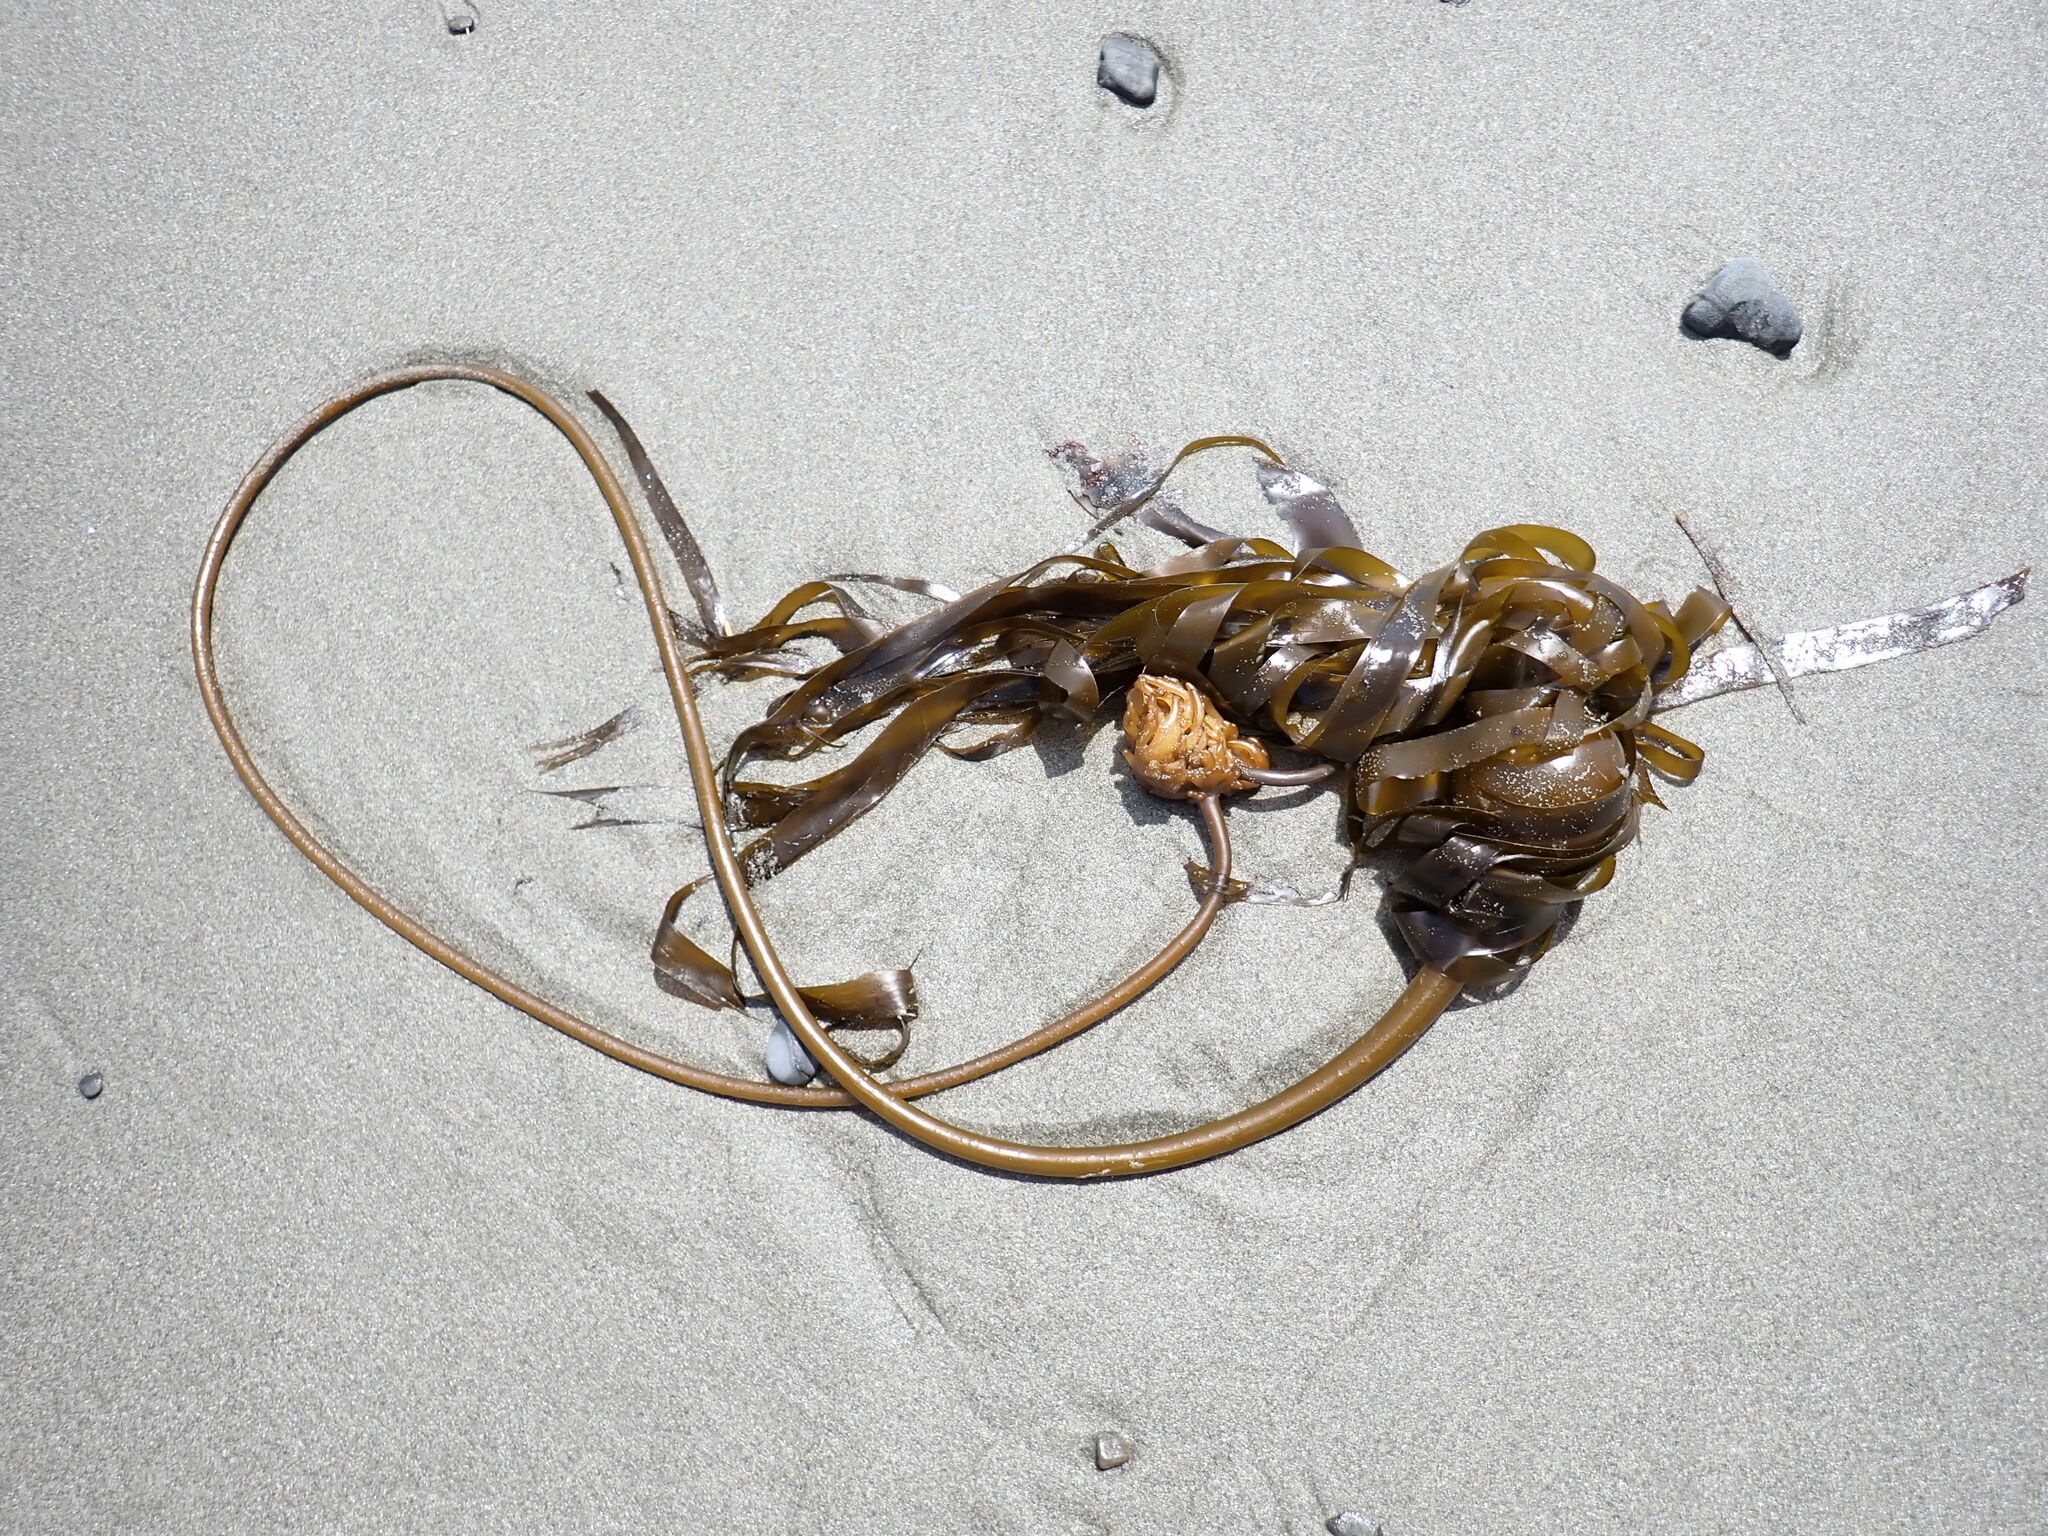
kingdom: Chromista
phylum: Ochrophyta
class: Phaeophyceae
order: Laminariales
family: Laminariaceae
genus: Nereocystis
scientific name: Nereocystis luetkeana
